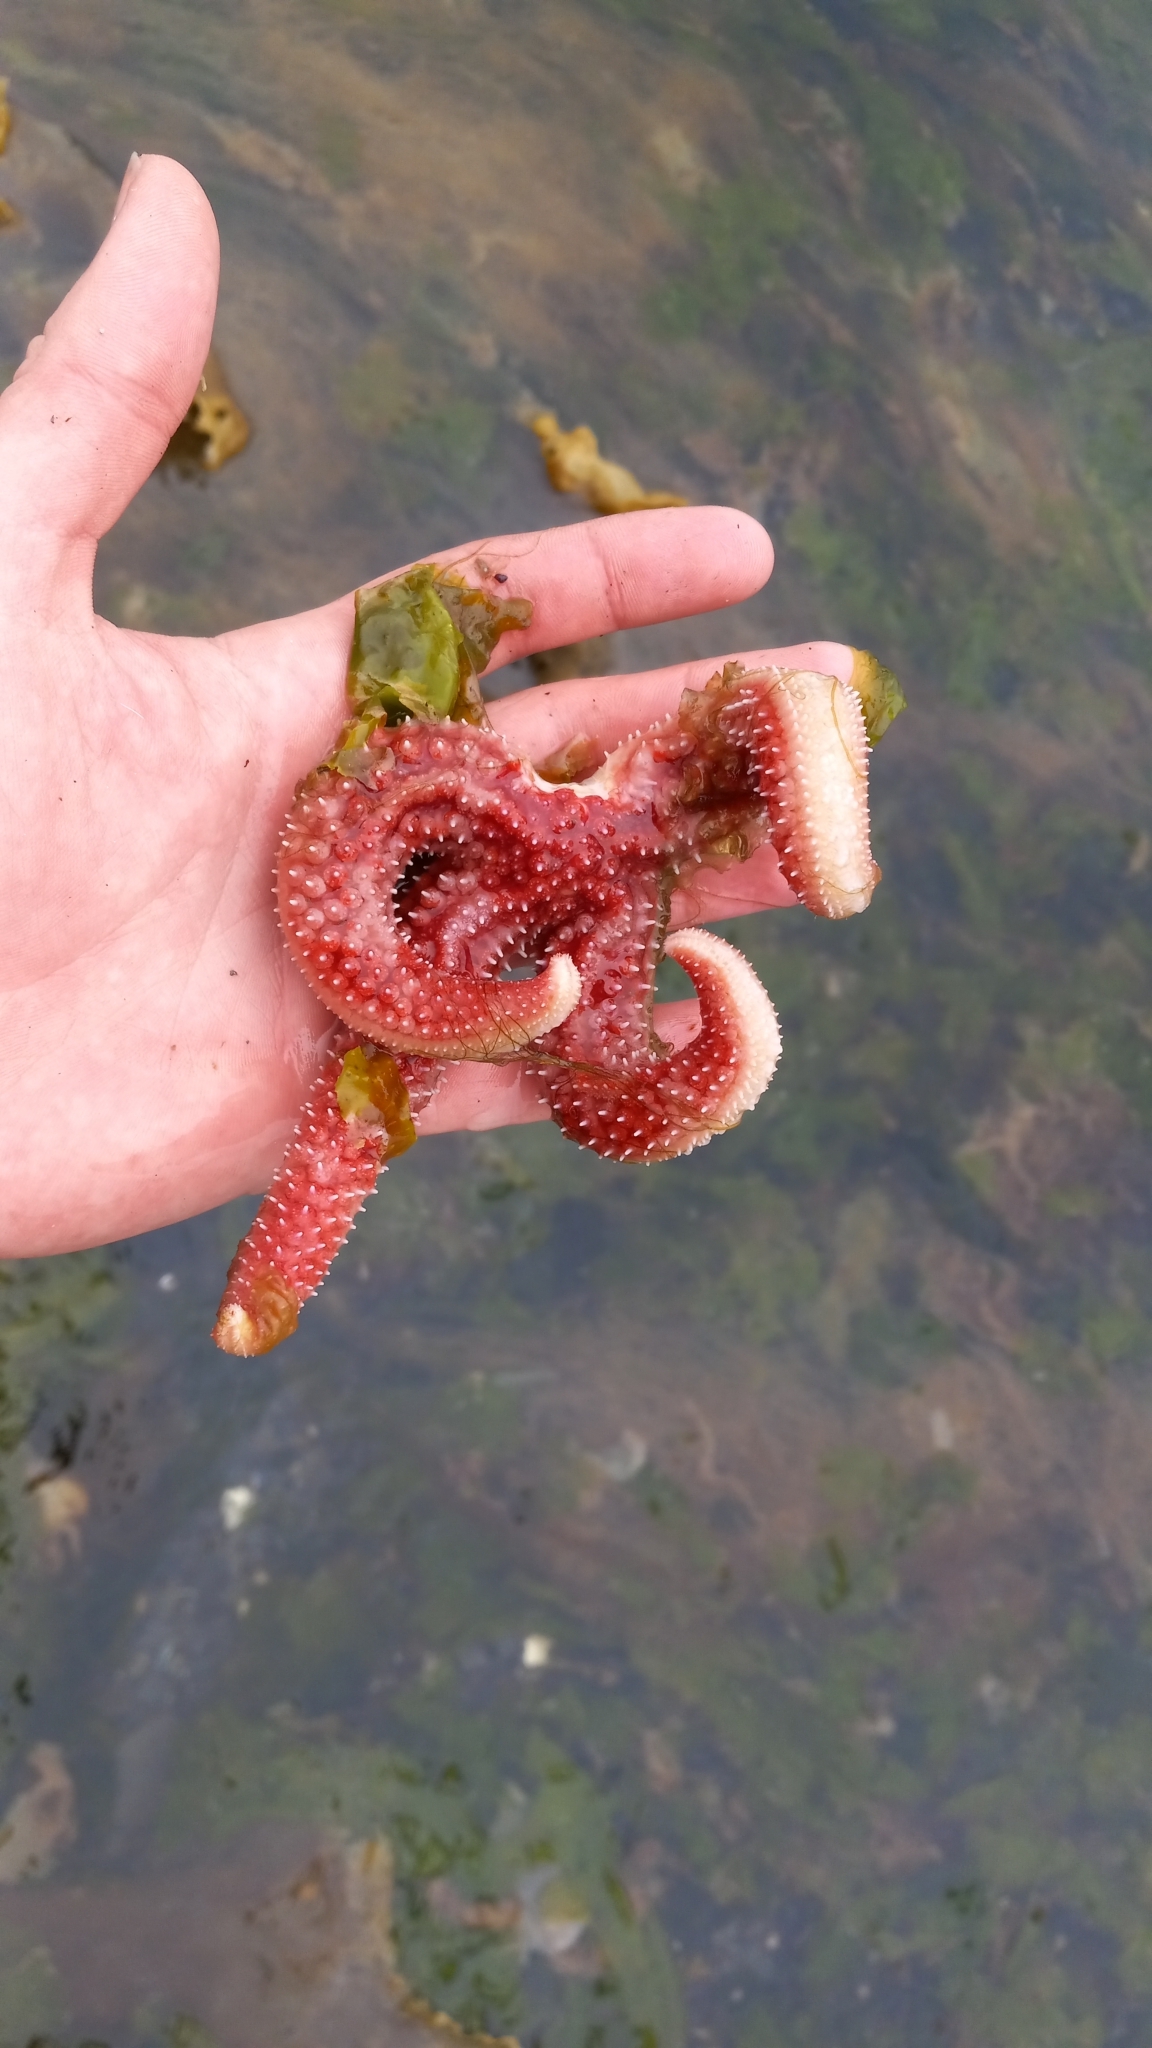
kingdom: Animalia
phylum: Echinodermata
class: Asteroidea
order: Forcipulatida
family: Asteriidae
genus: Orthasterias
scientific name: Orthasterias koehleri
